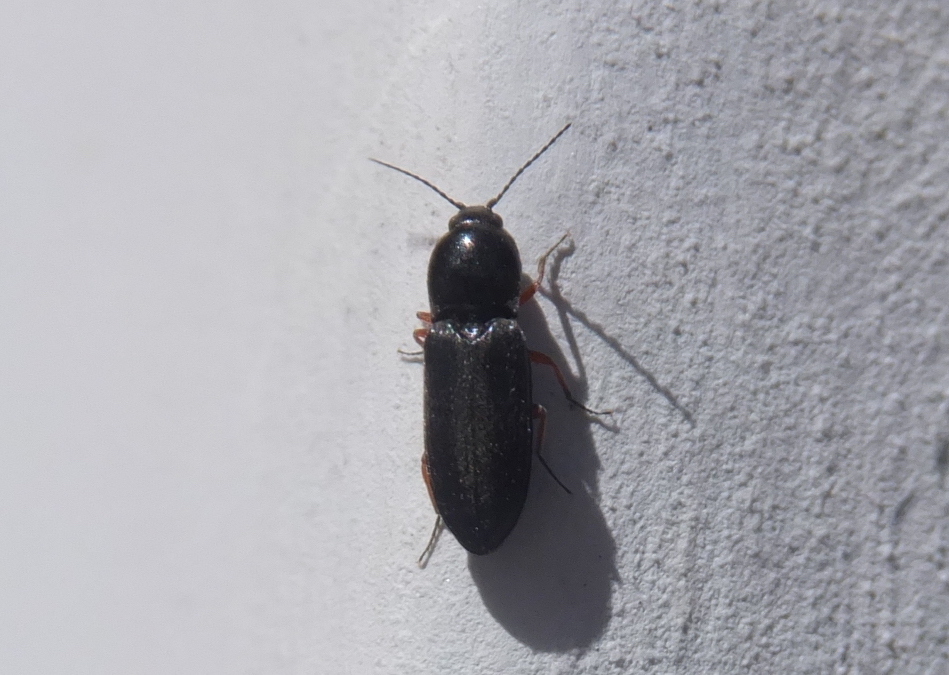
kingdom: Animalia
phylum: Arthropoda
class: Insecta
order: Coleoptera
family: Elateridae
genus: Cardiophorus
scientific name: Cardiophorus rufipes
